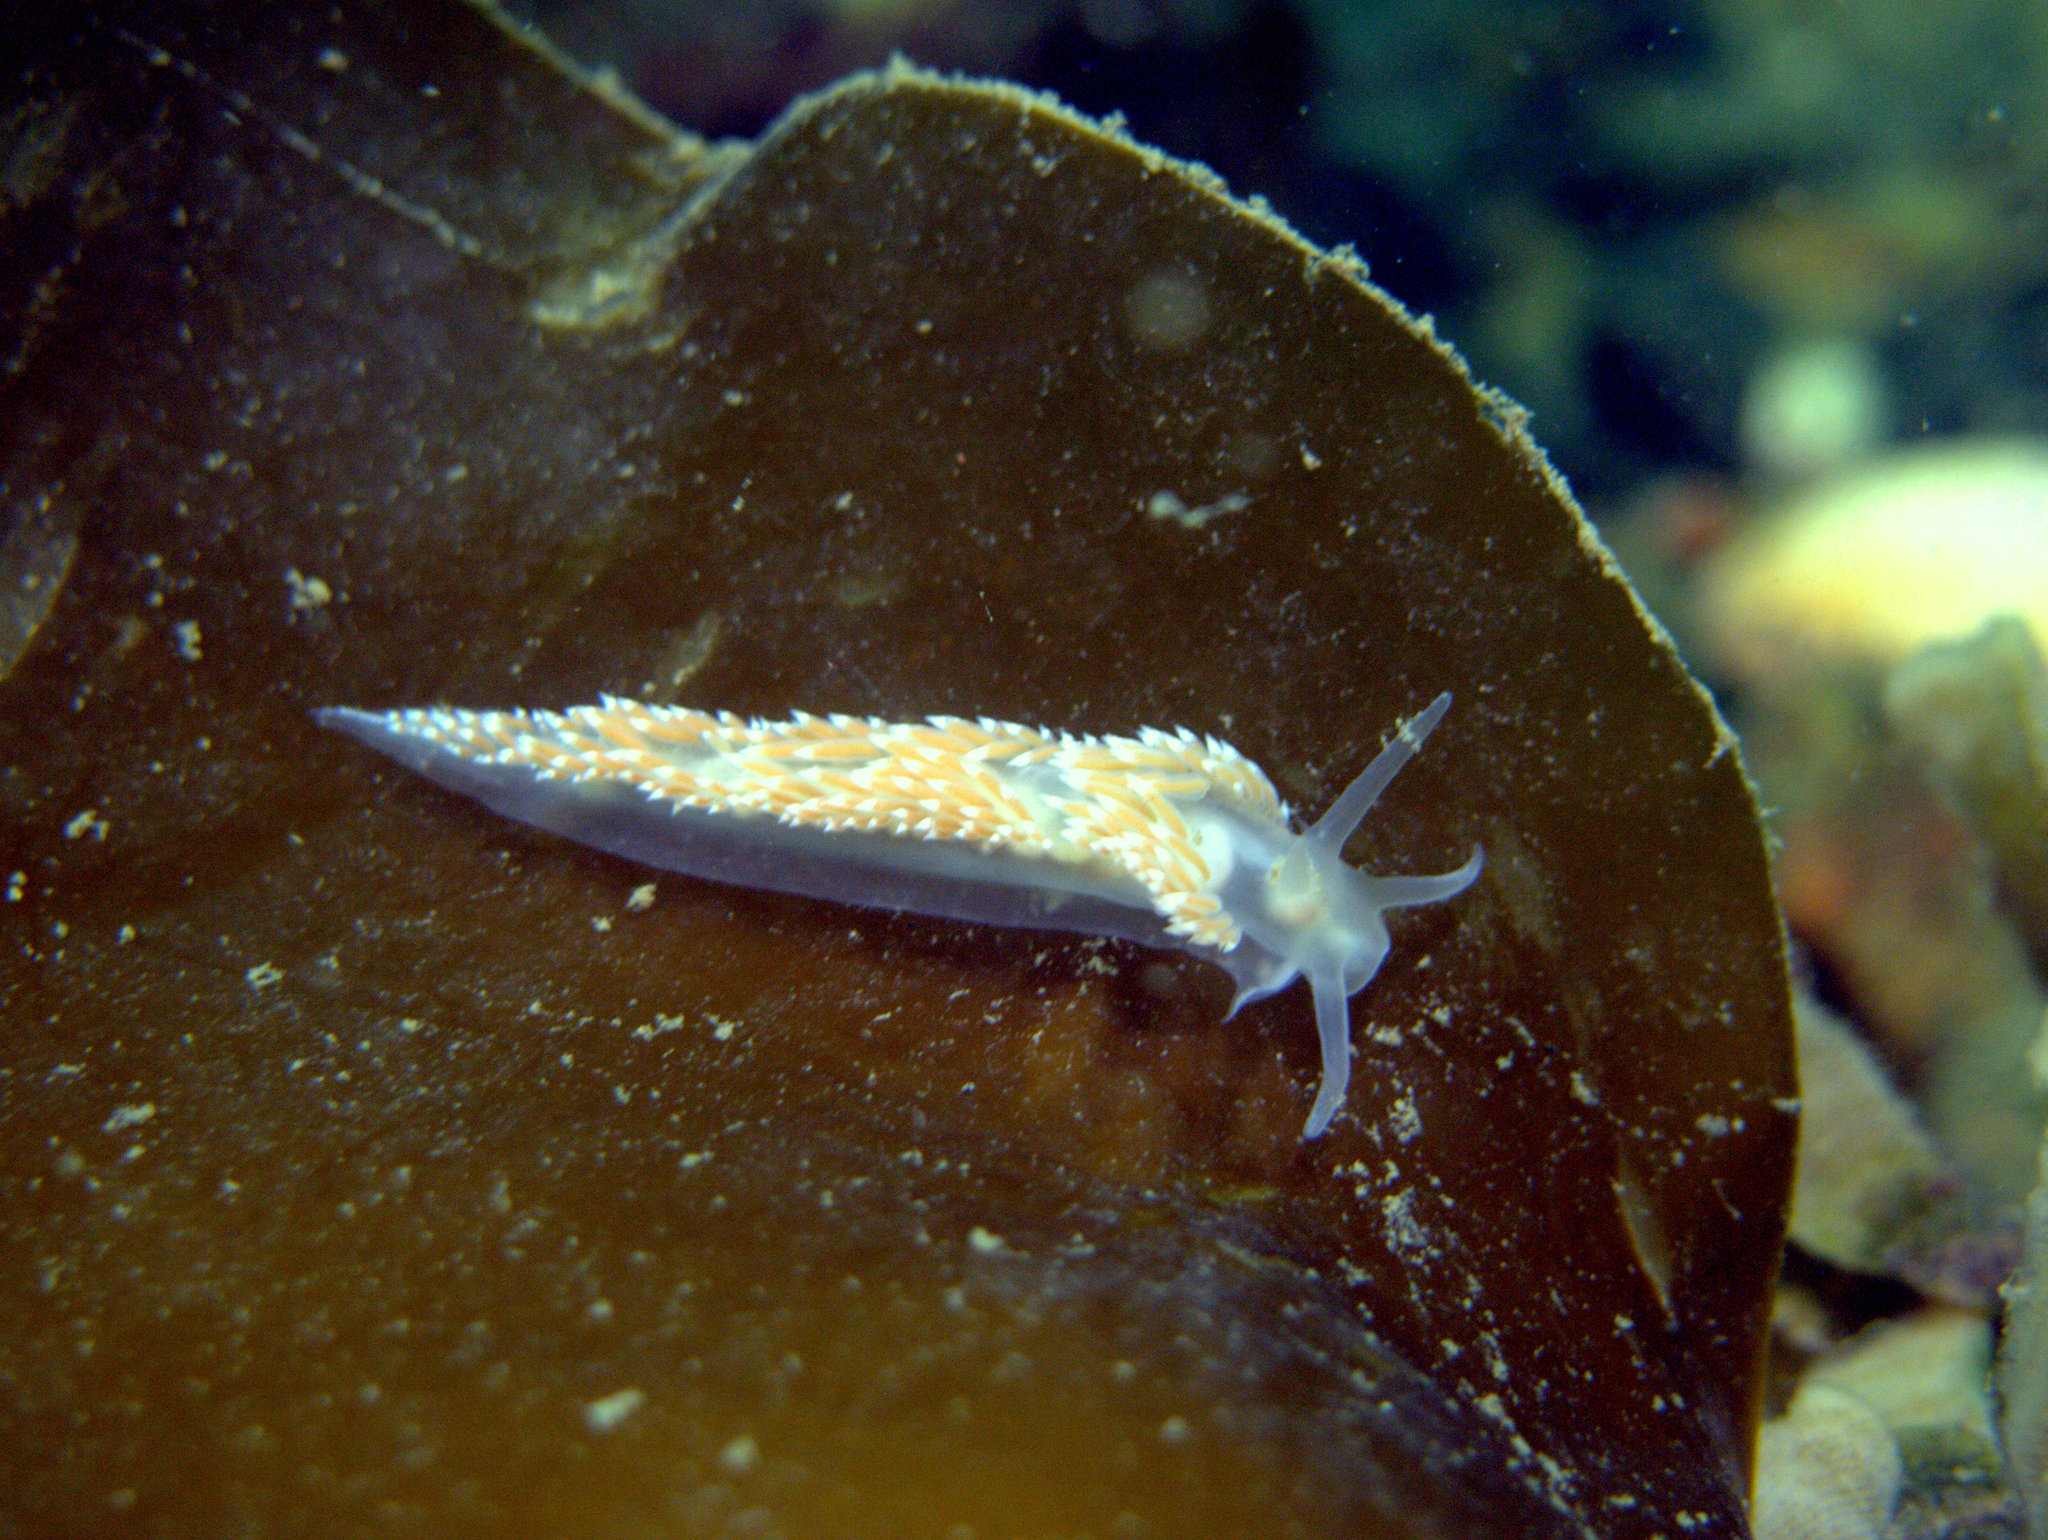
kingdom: Animalia
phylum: Mollusca
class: Gastropoda
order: Nudibranchia
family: Coryphellidae
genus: Coryphella
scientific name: Coryphella verrucosa
